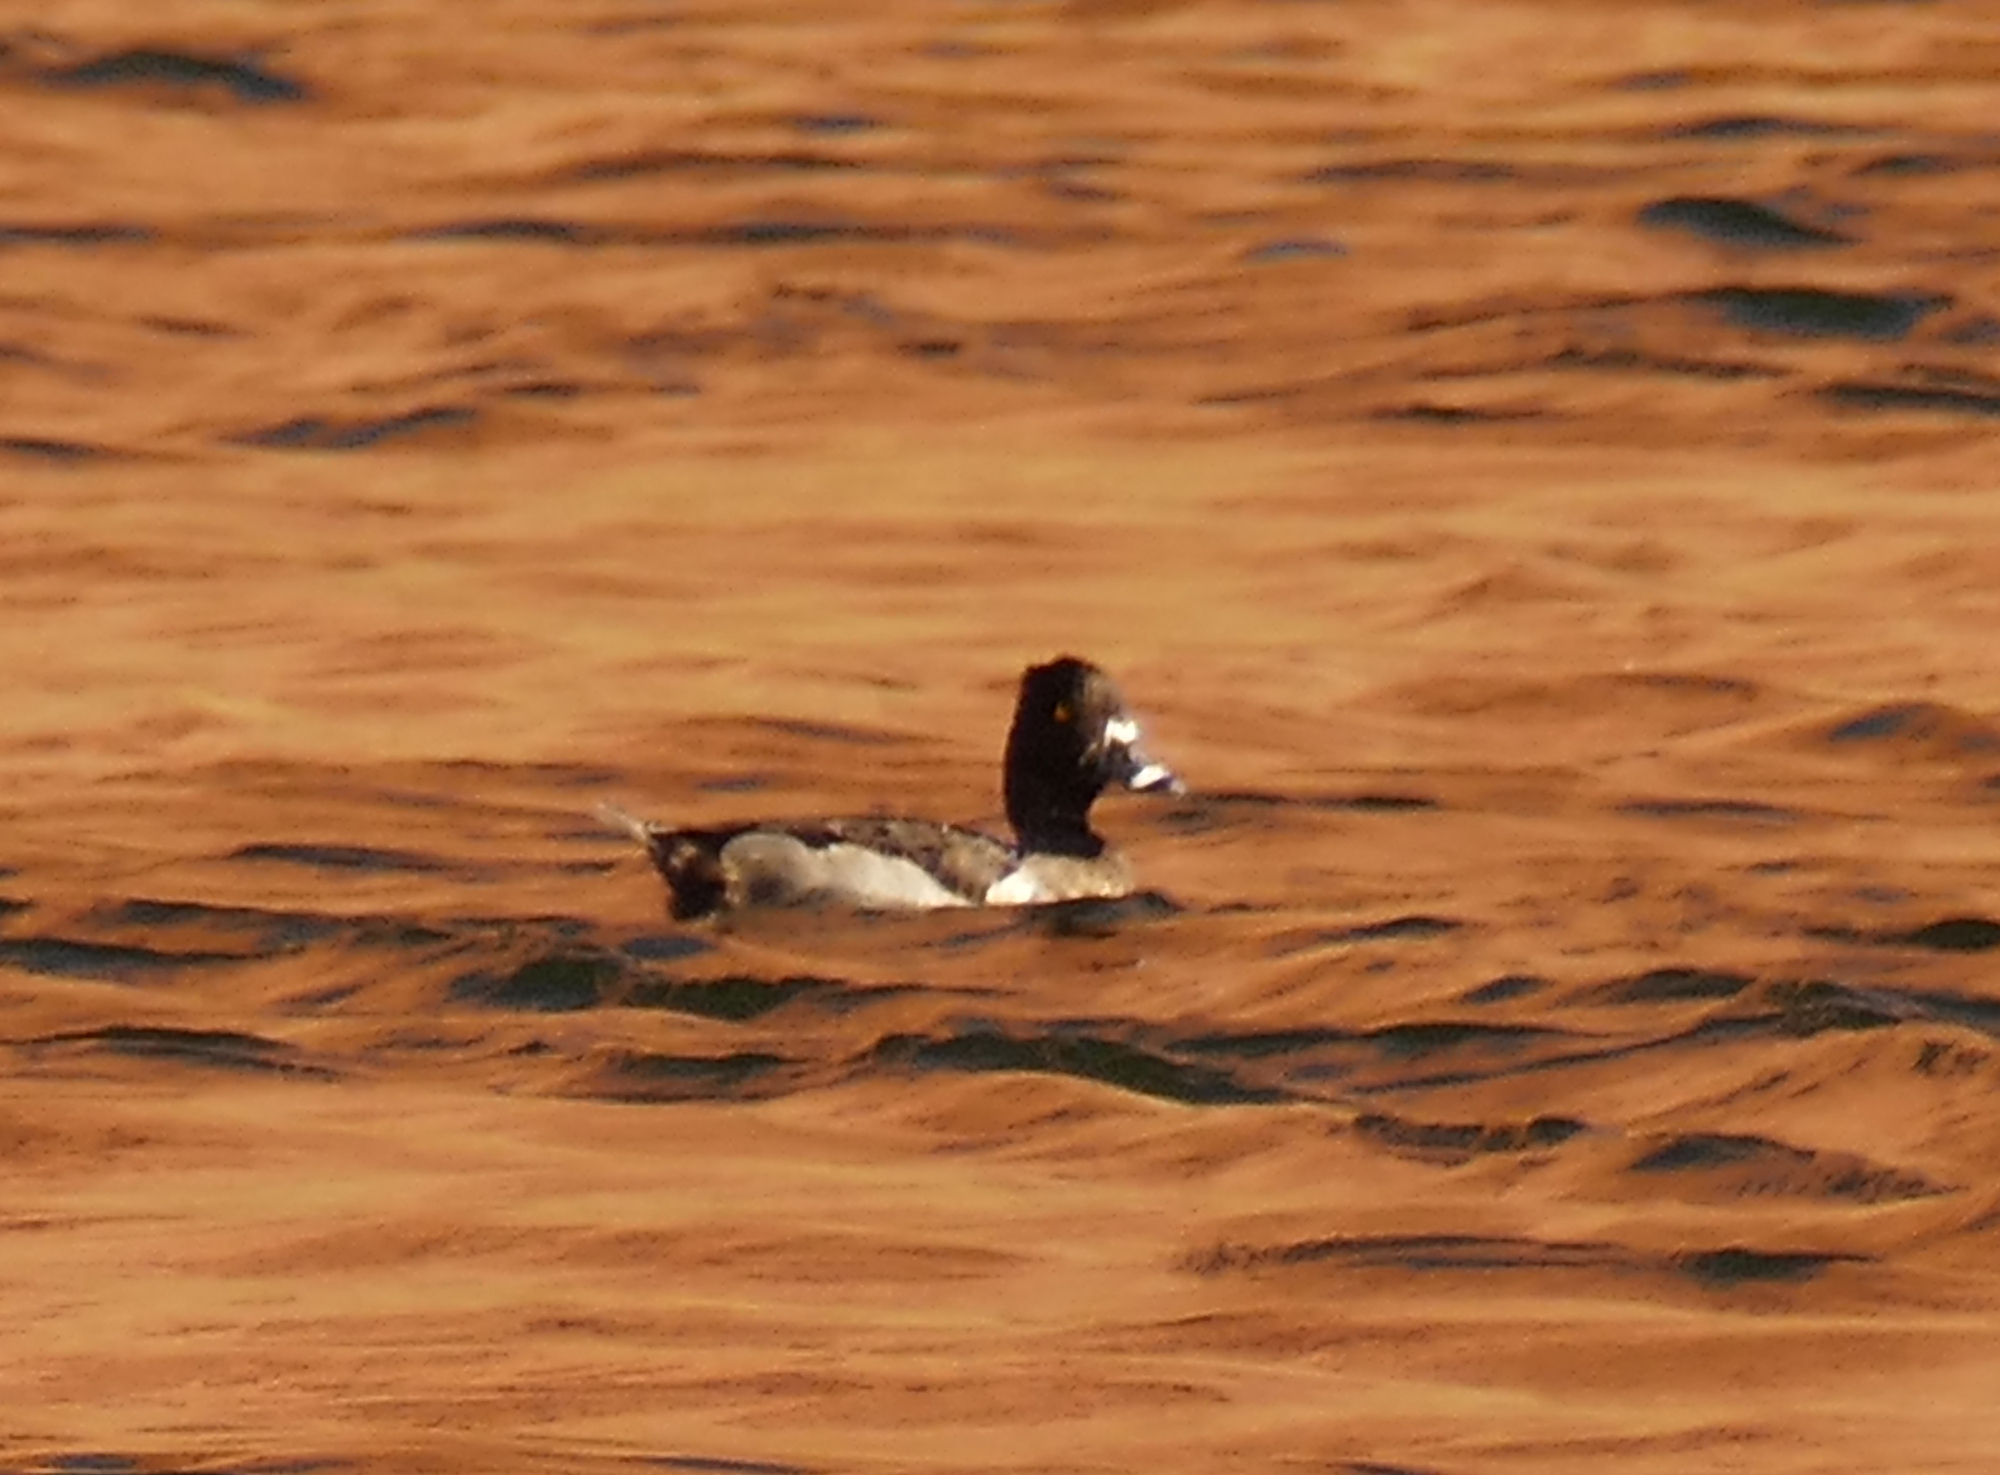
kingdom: Animalia
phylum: Chordata
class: Aves
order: Anseriformes
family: Anatidae
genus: Aythya
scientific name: Aythya collaris
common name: Ring-necked duck
